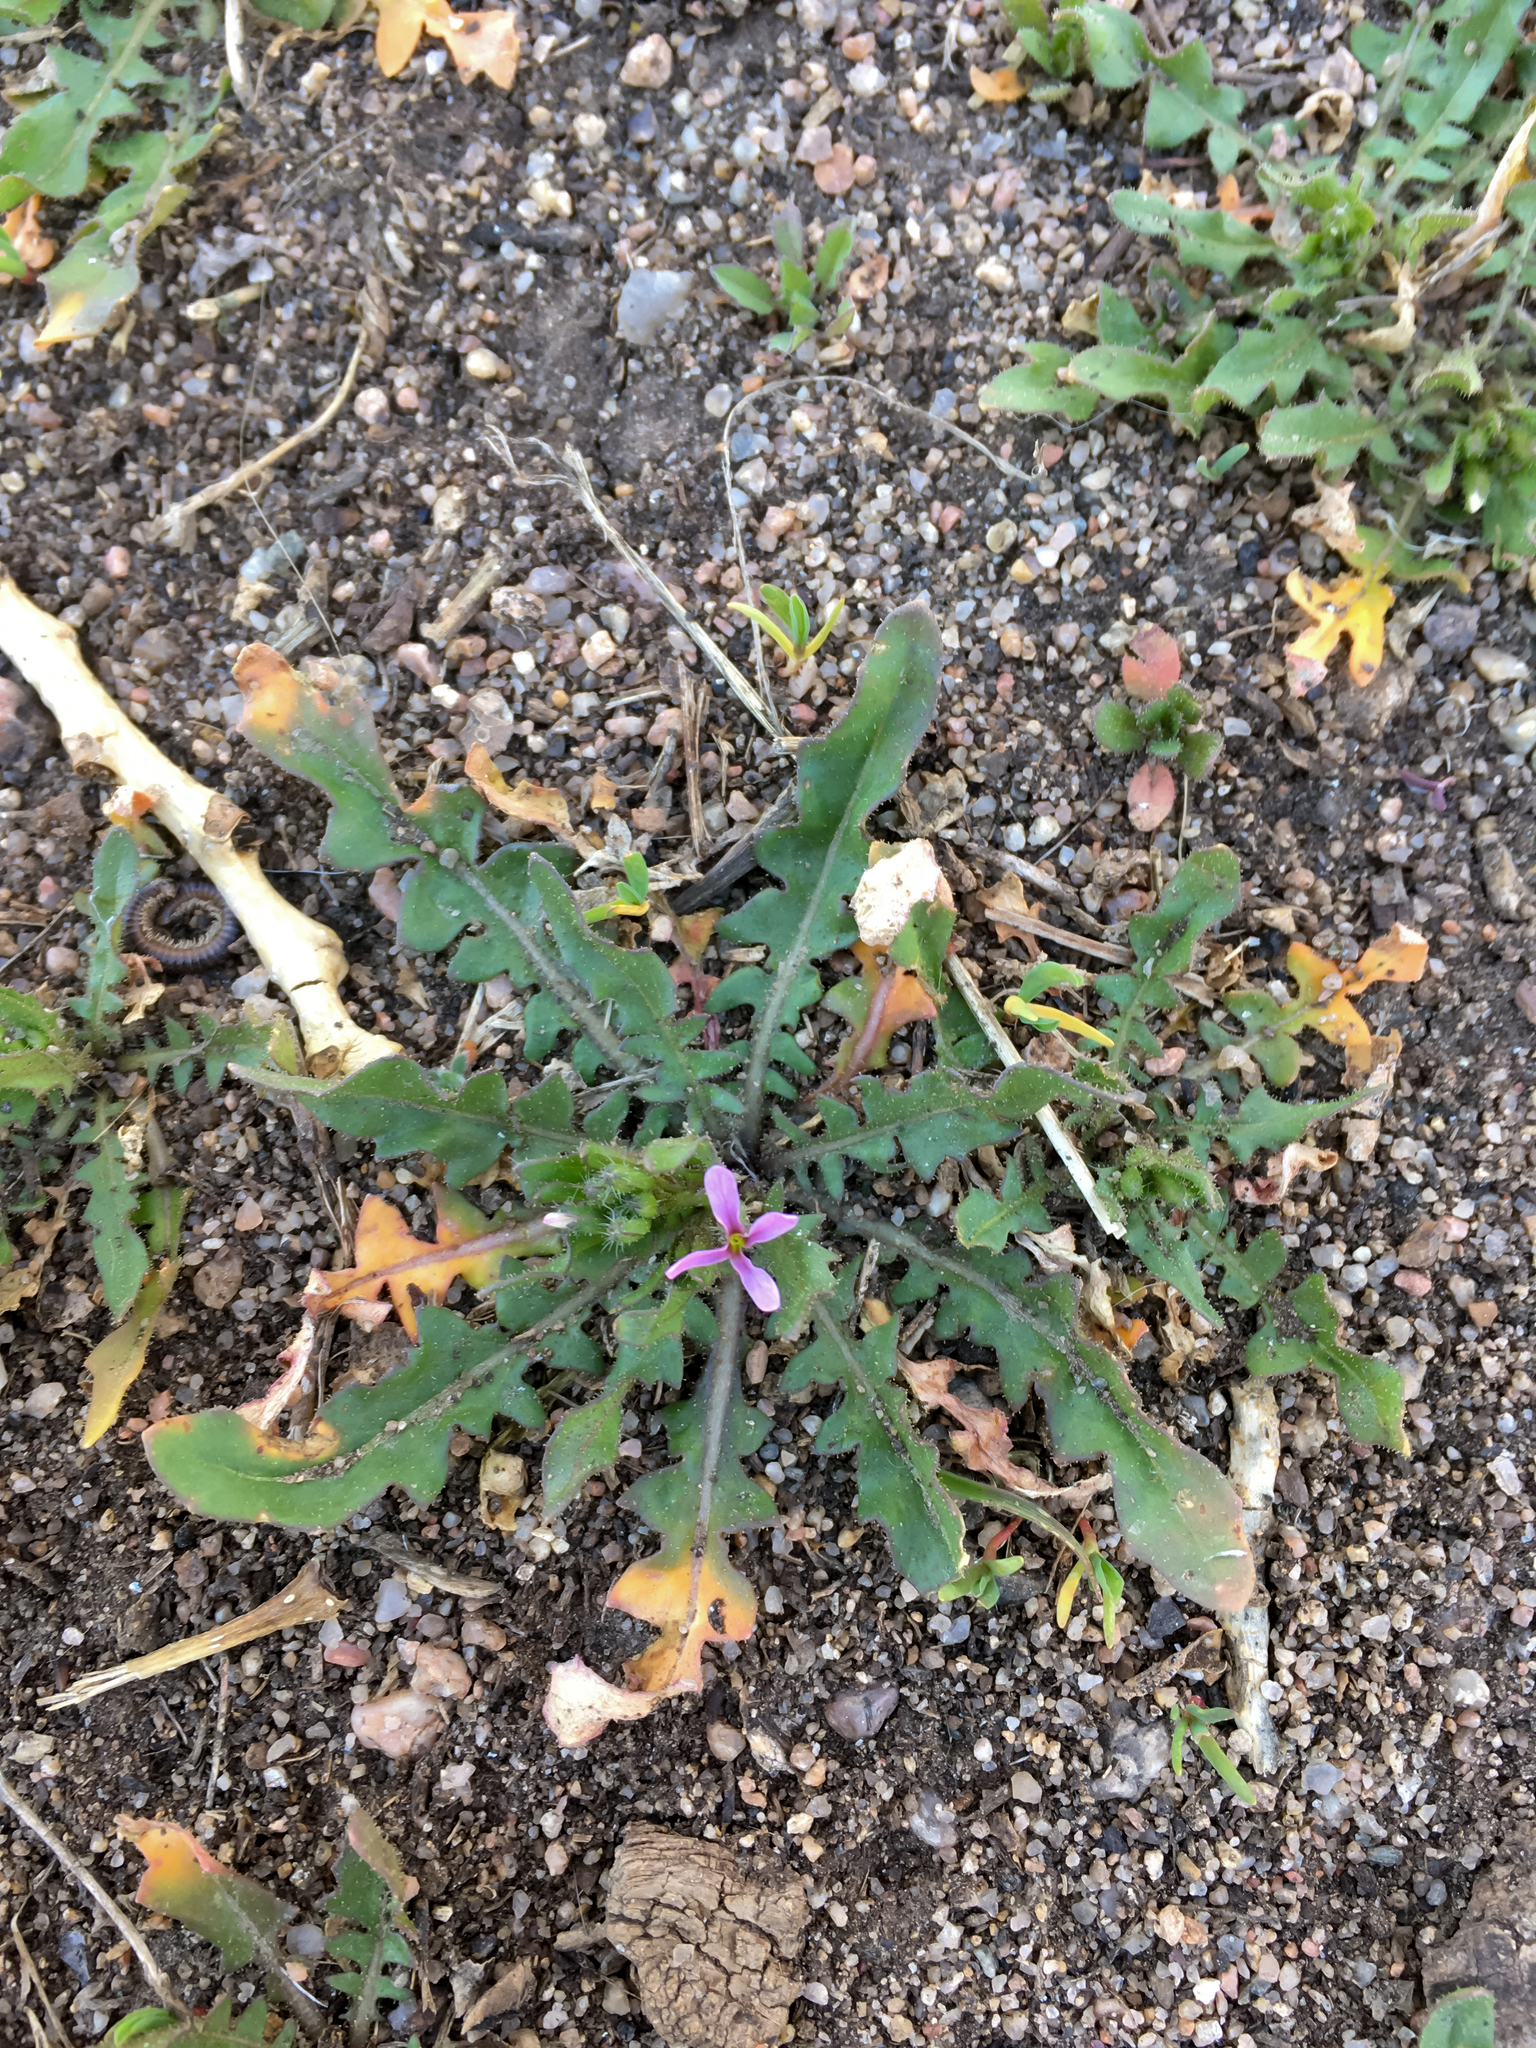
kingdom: Plantae
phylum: Tracheophyta
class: Magnoliopsida
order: Brassicales
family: Brassicaceae
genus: Chorispora
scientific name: Chorispora tenella
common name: Crossflower
